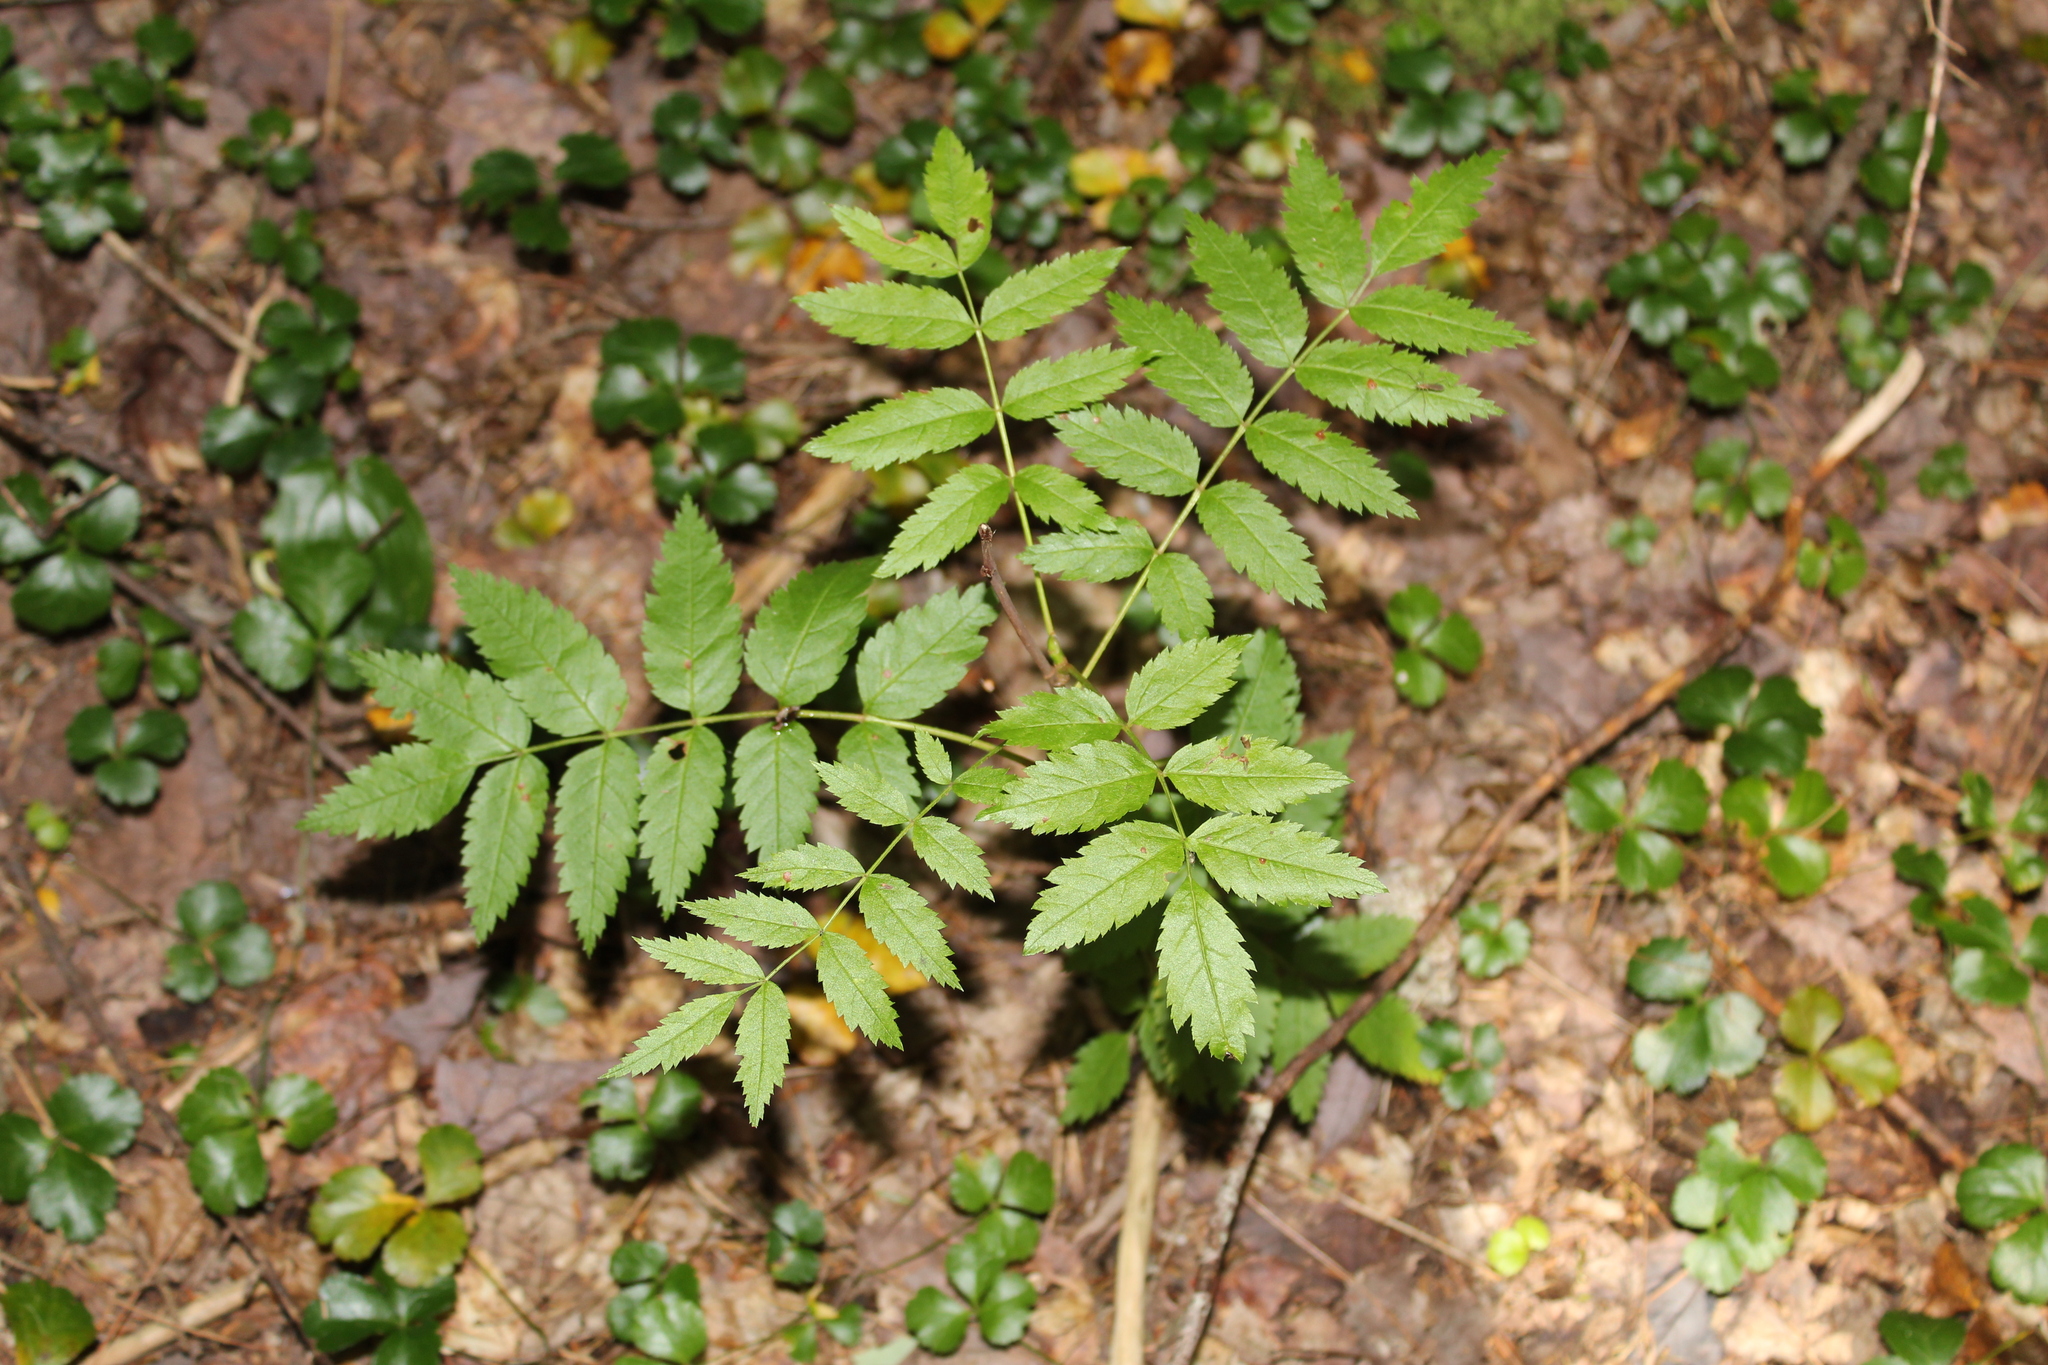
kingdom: Plantae
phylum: Tracheophyta
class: Magnoliopsida
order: Rosales
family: Rosaceae
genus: Sorbus
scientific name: Sorbus americana
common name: American mountain-ash
